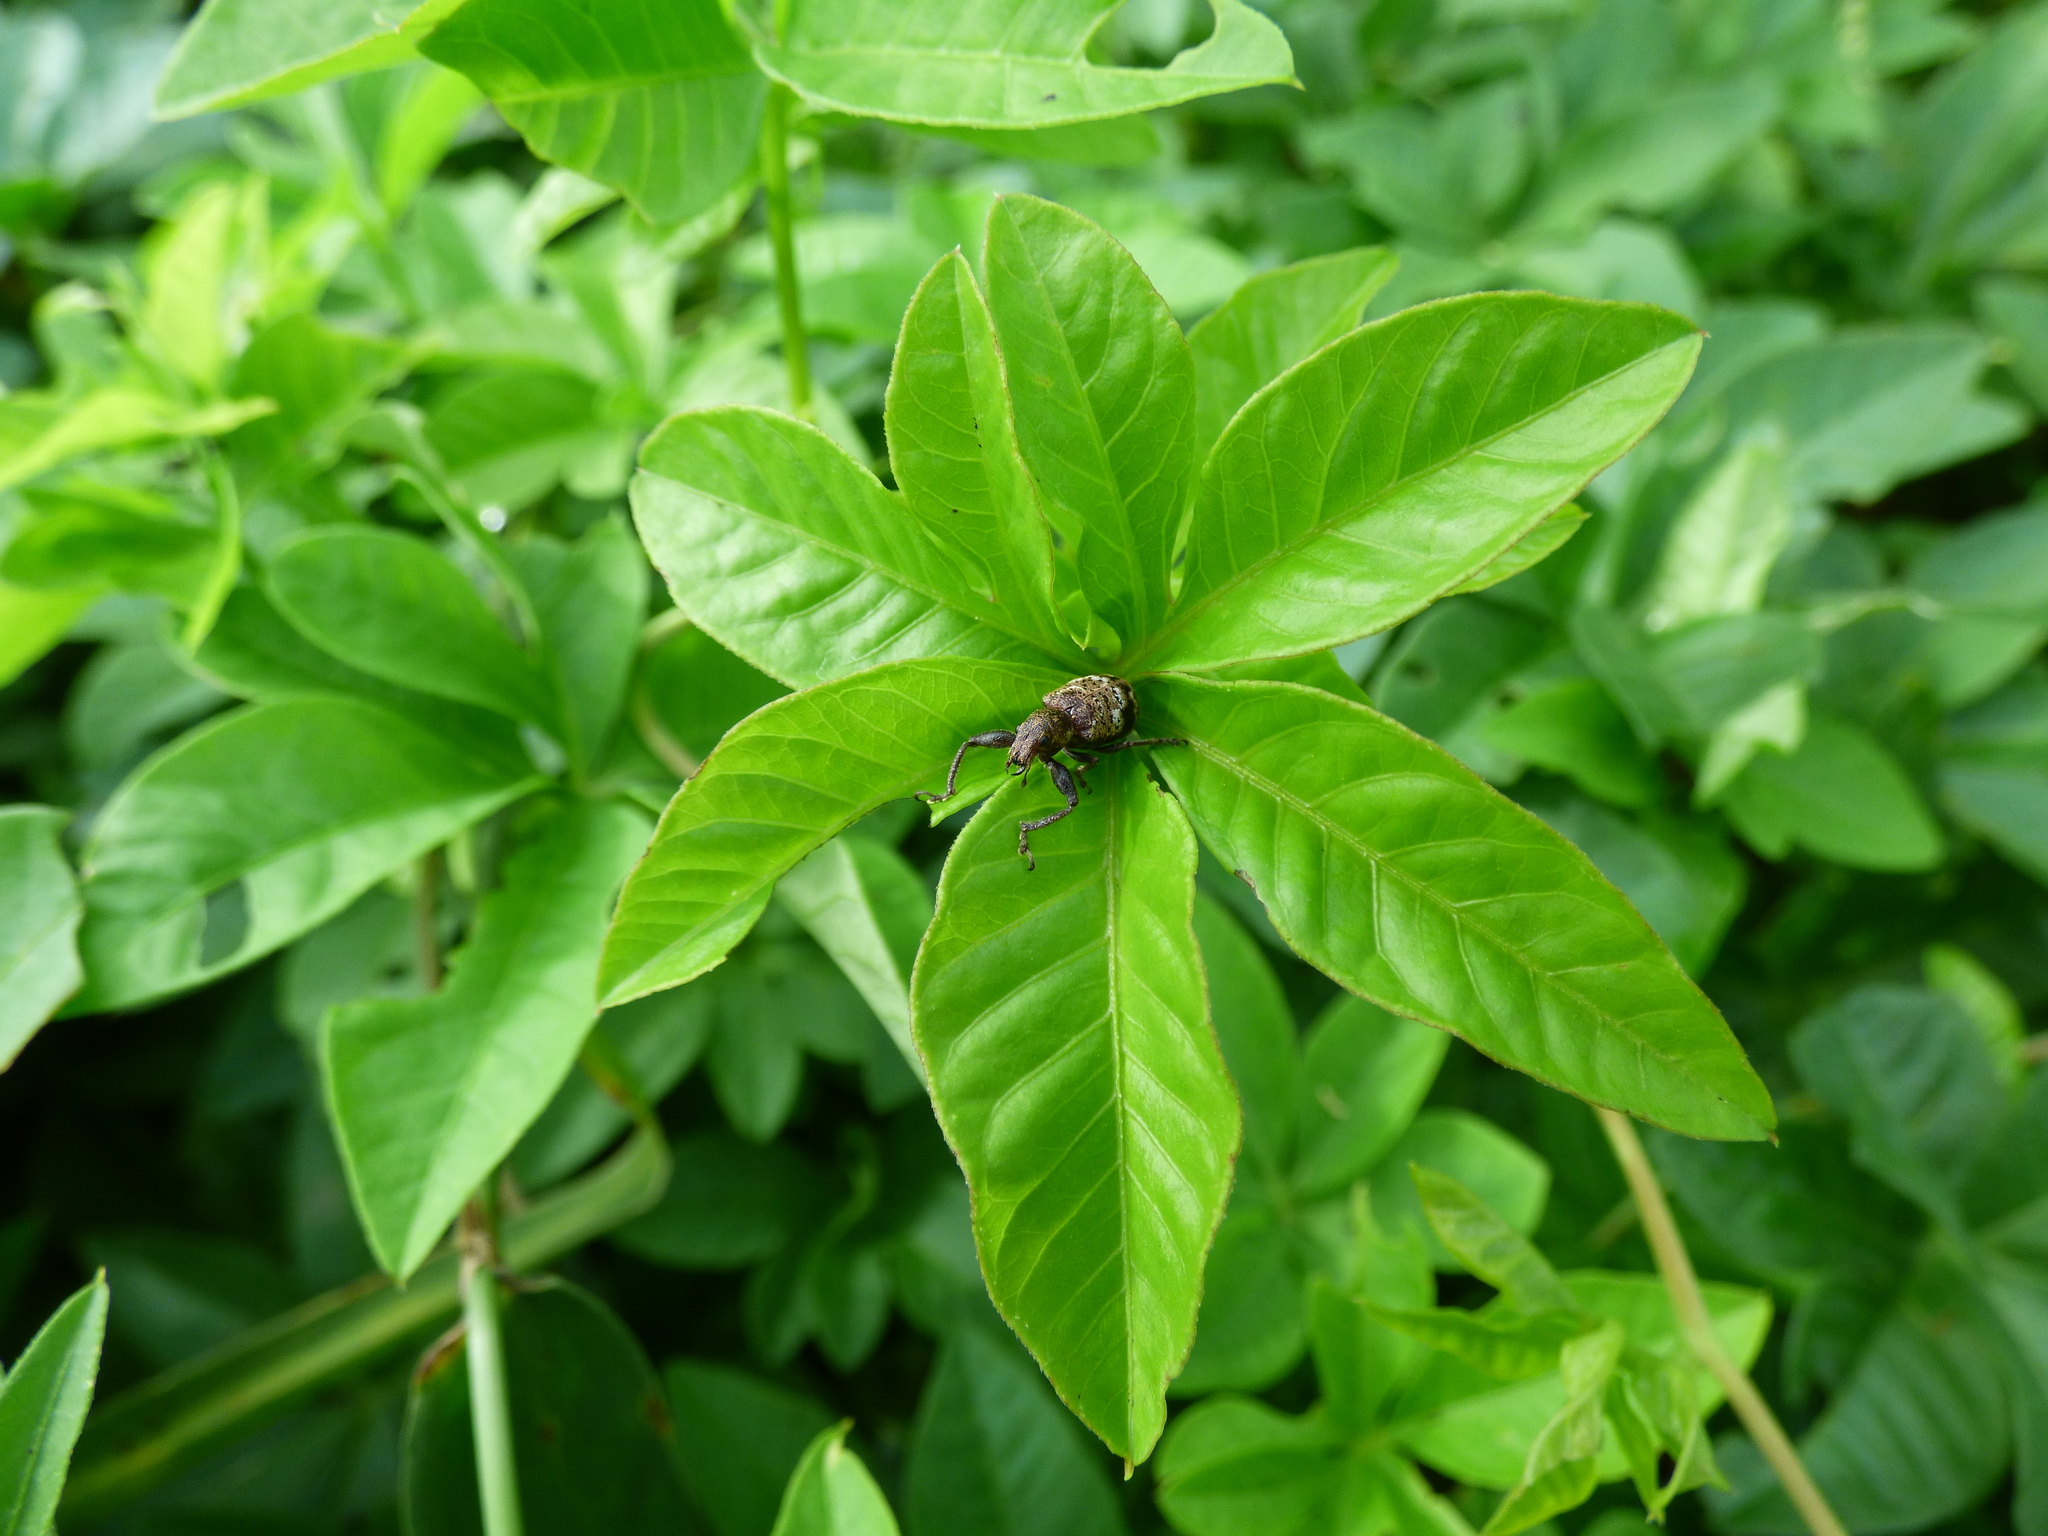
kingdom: Animalia
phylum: Arthropoda
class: Insecta
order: Coleoptera
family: Curculionidae
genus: Hadromeropsis
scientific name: Hadromeropsis argentinensis
